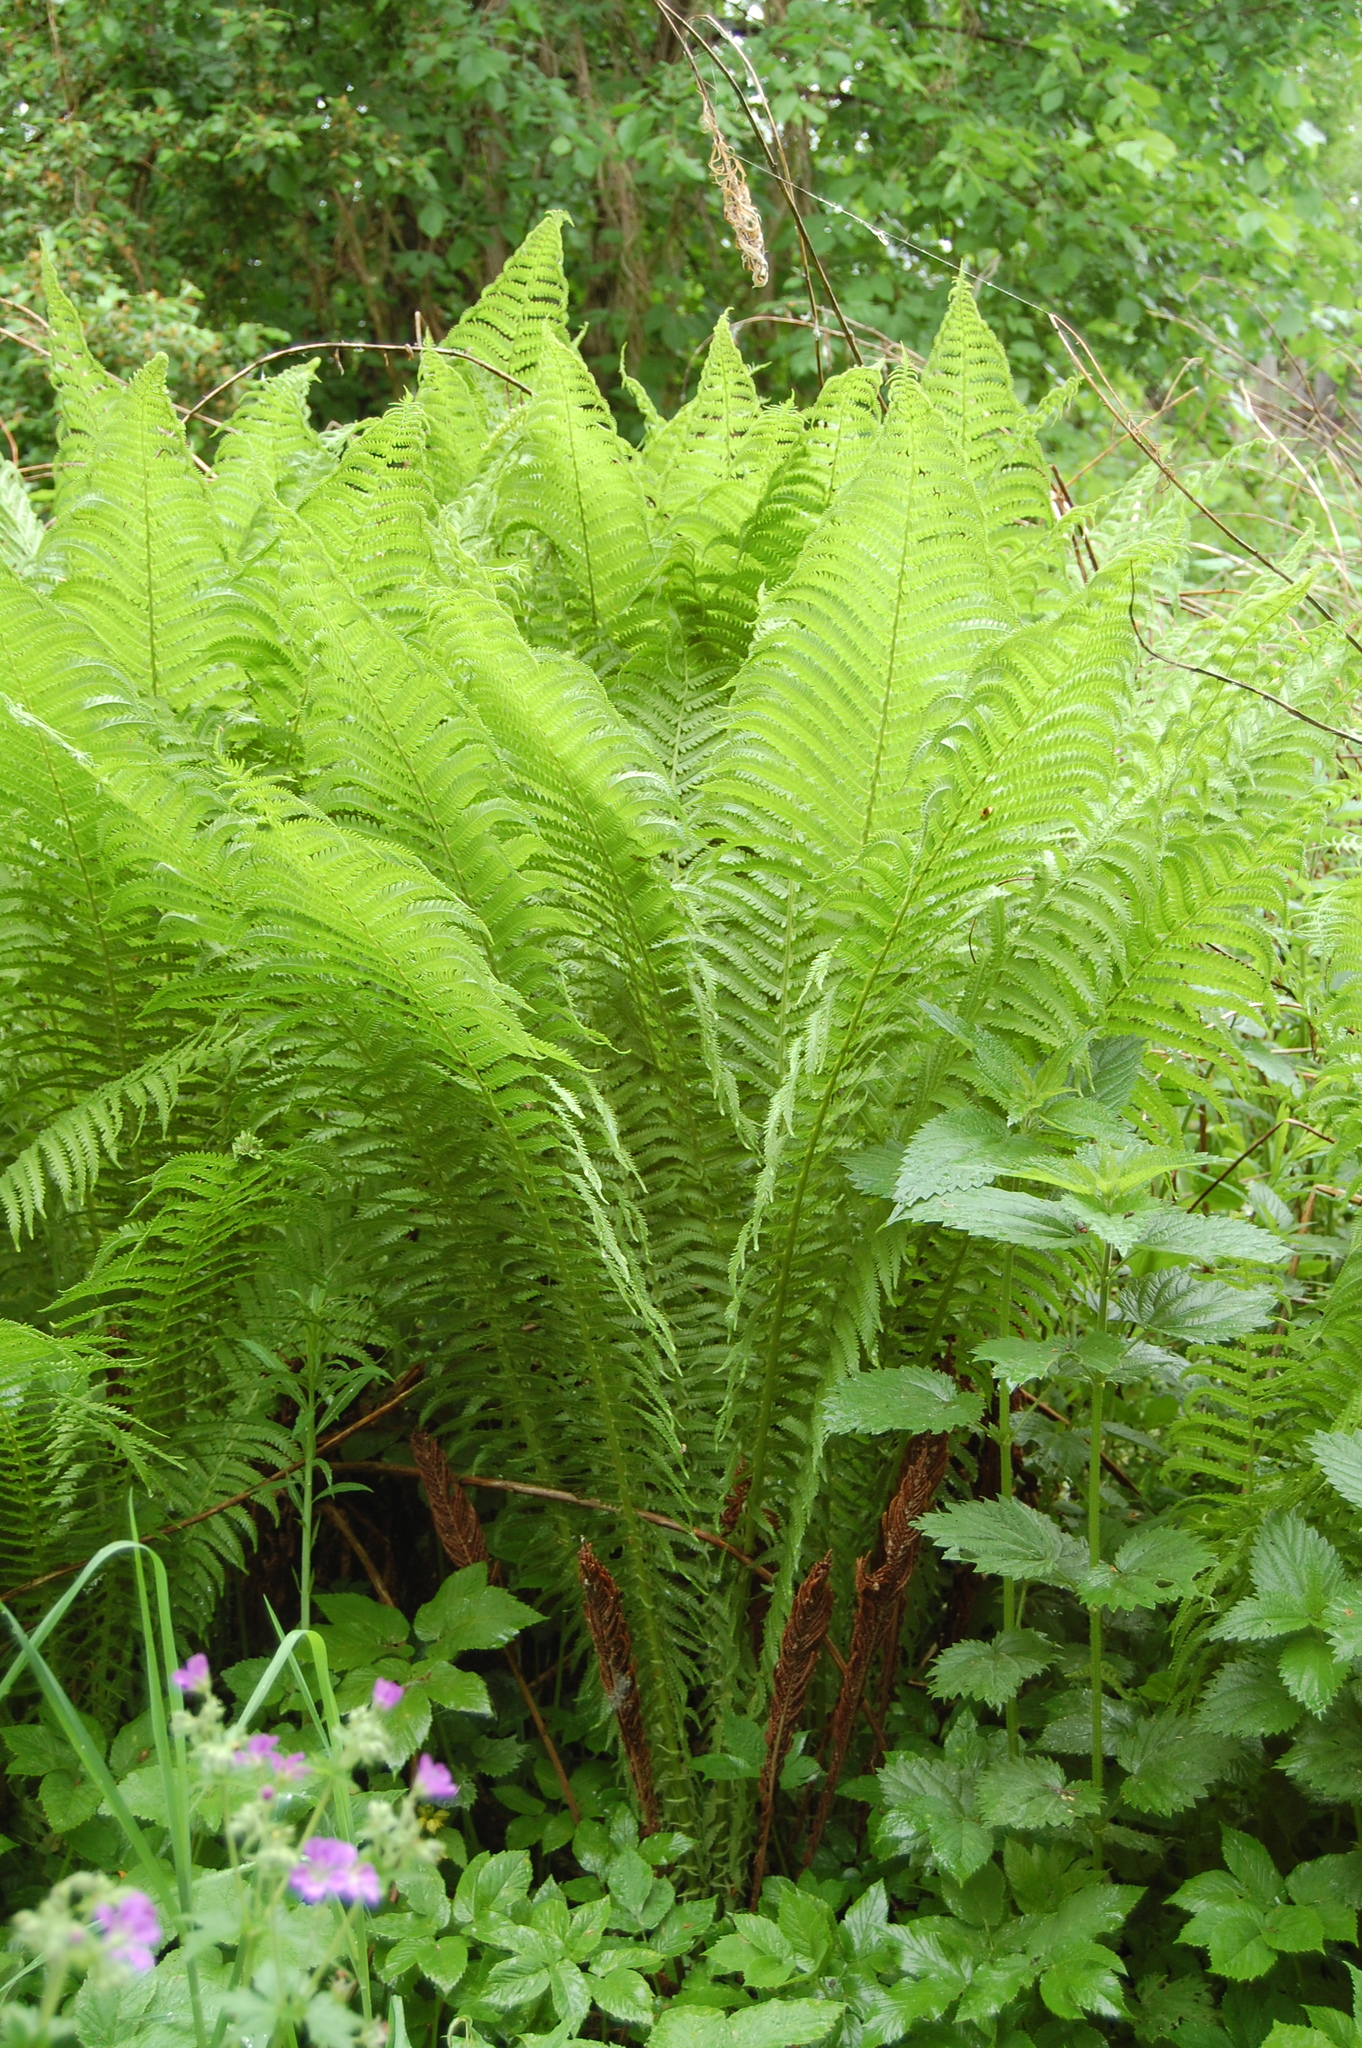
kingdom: Plantae
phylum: Tracheophyta
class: Polypodiopsida
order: Polypodiales
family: Onocleaceae
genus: Matteuccia
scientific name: Matteuccia struthiopteris
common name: Ostrich fern
